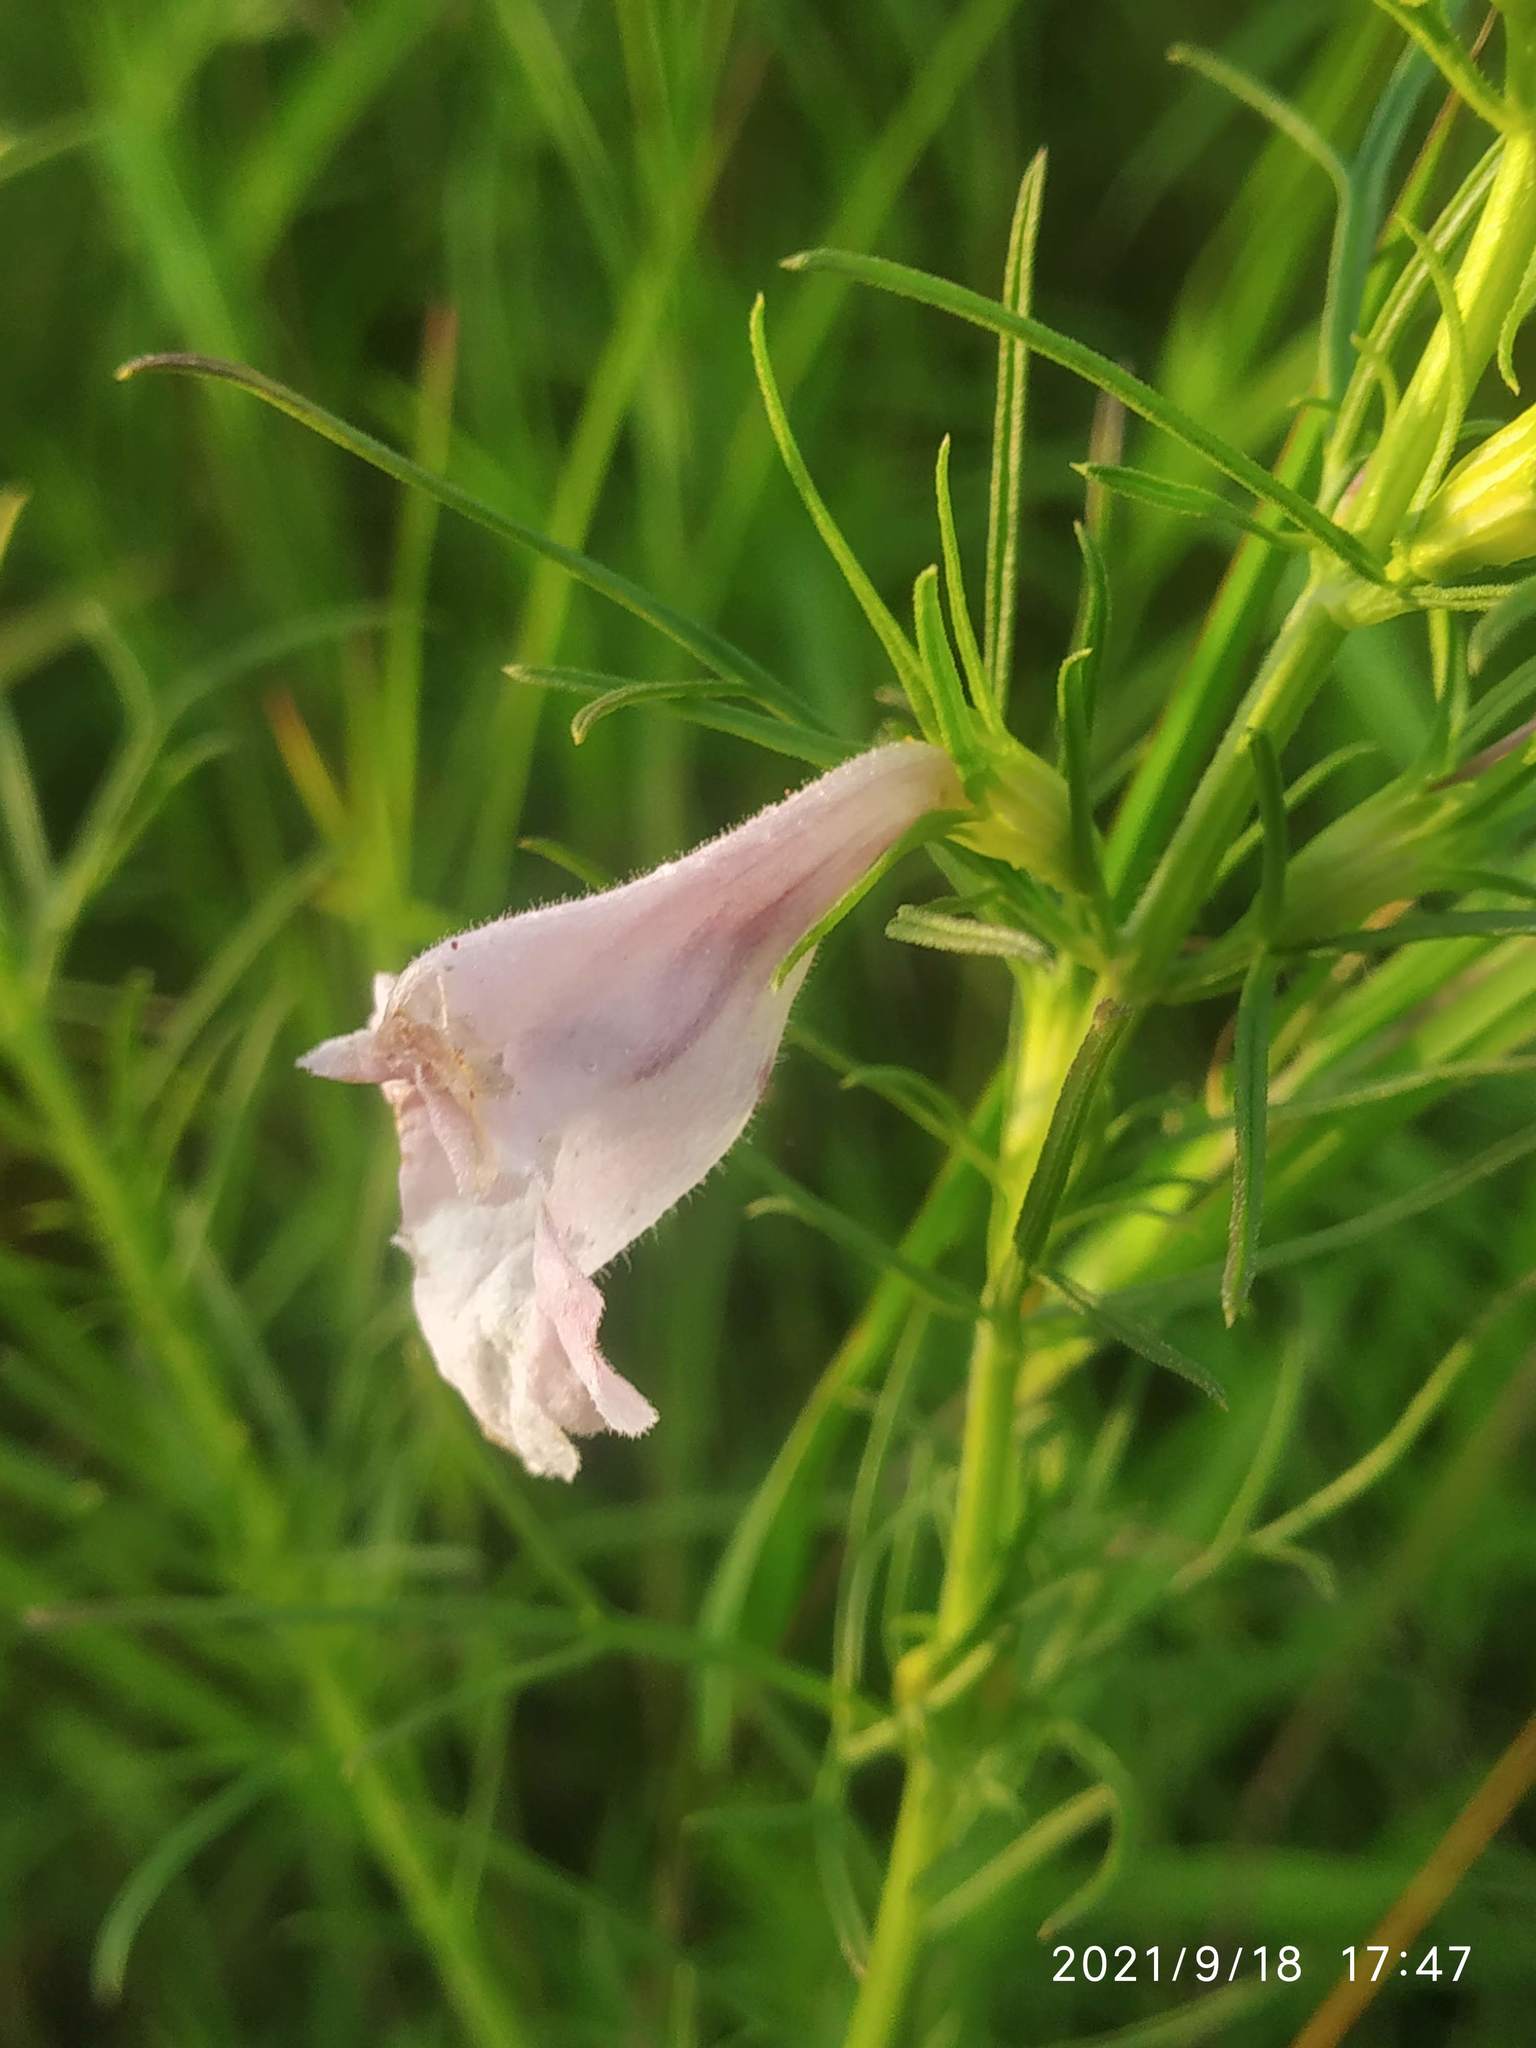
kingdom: Plantae
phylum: Tracheophyta
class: Magnoliopsida
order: Lamiales
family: Orobanchaceae
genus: Parasopubia
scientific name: Parasopubia delphiniifolia
